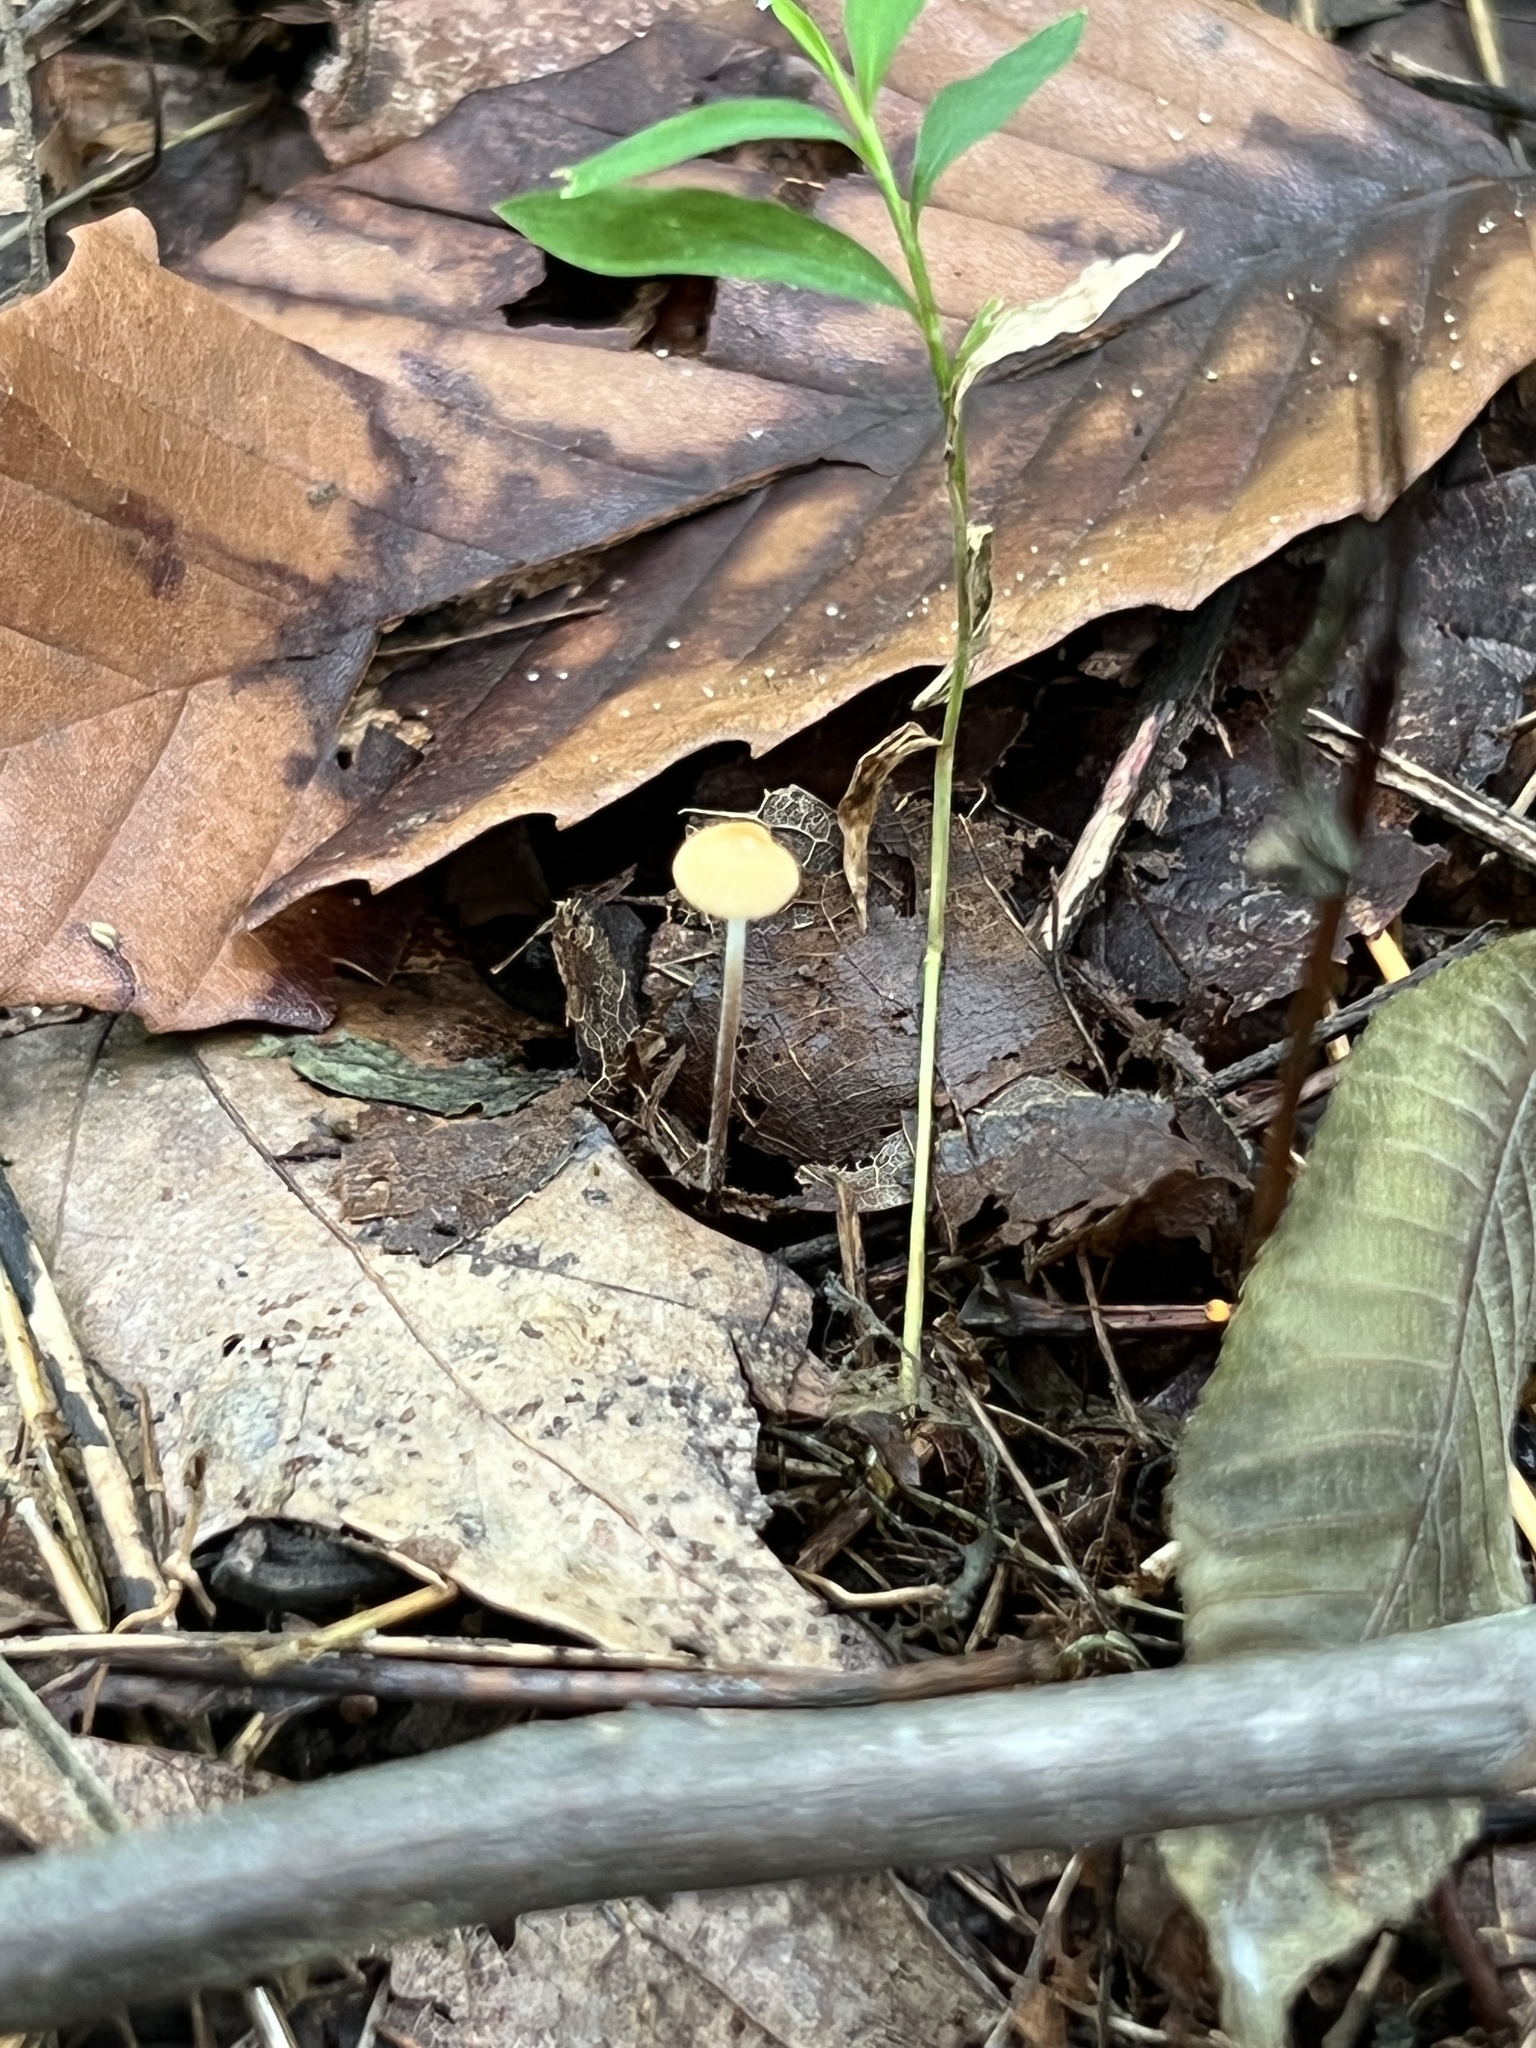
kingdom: Fungi
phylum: Basidiomycota
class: Agaricomycetes
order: Agaricales
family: Physalacriaceae
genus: Rhizomarasmius
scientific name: Rhizomarasmius pyrrhocephalus
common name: Hairy long stem marasmius
